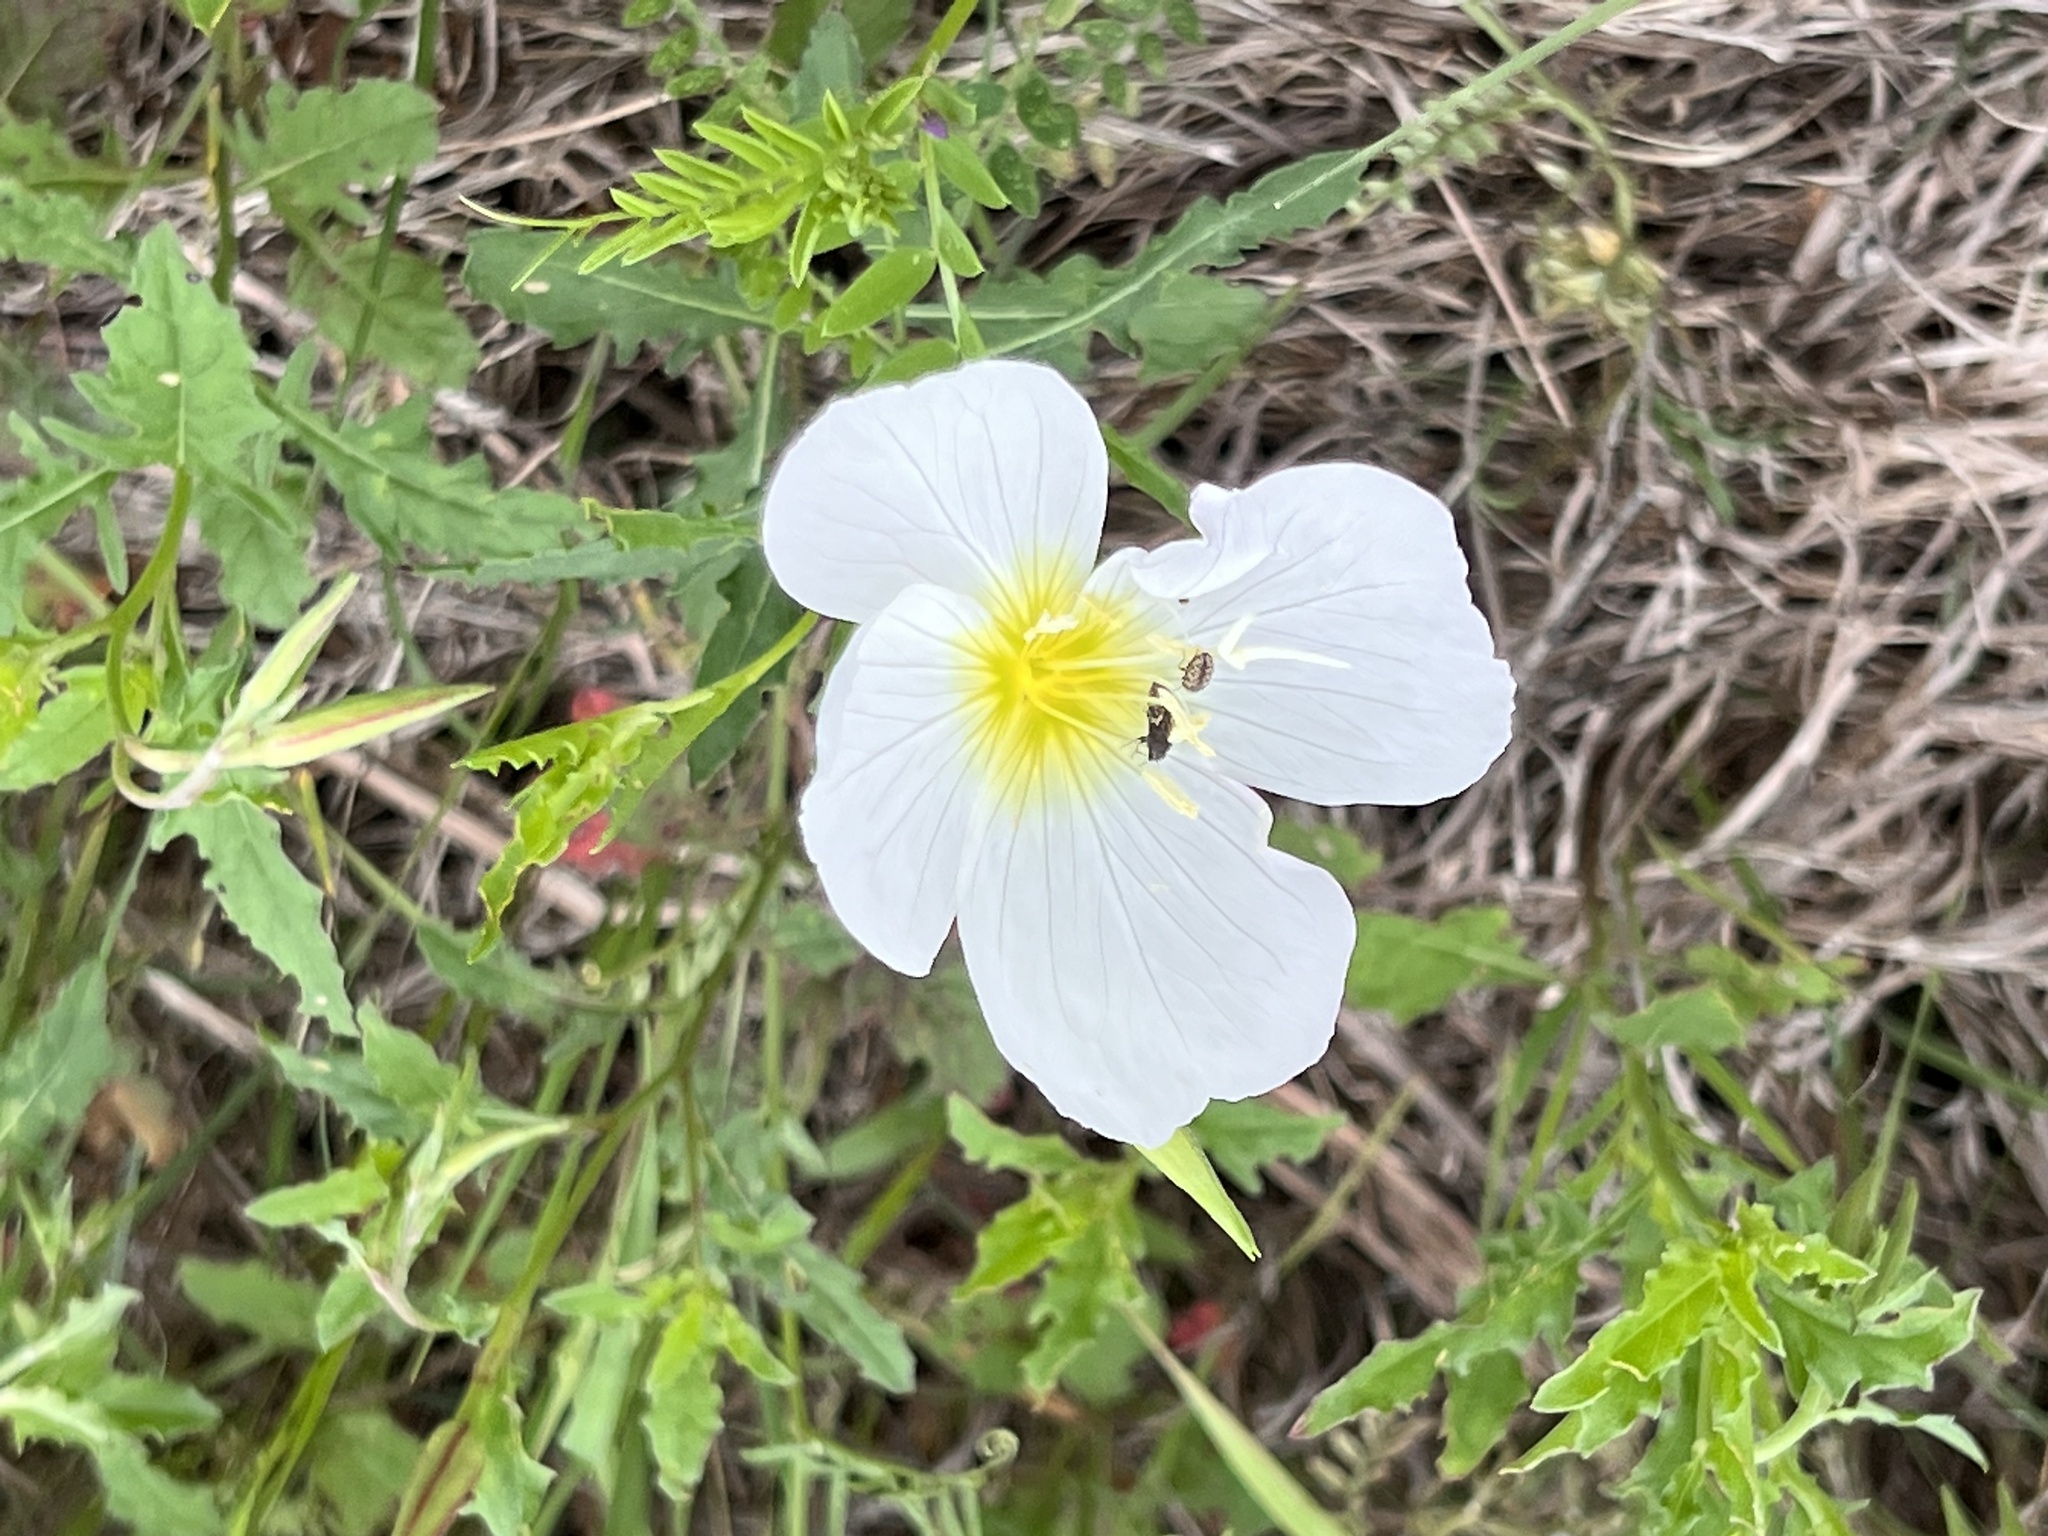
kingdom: Plantae
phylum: Tracheophyta
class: Magnoliopsida
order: Myrtales
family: Onagraceae
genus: Oenothera
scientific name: Oenothera speciosa
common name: White evening-primrose
